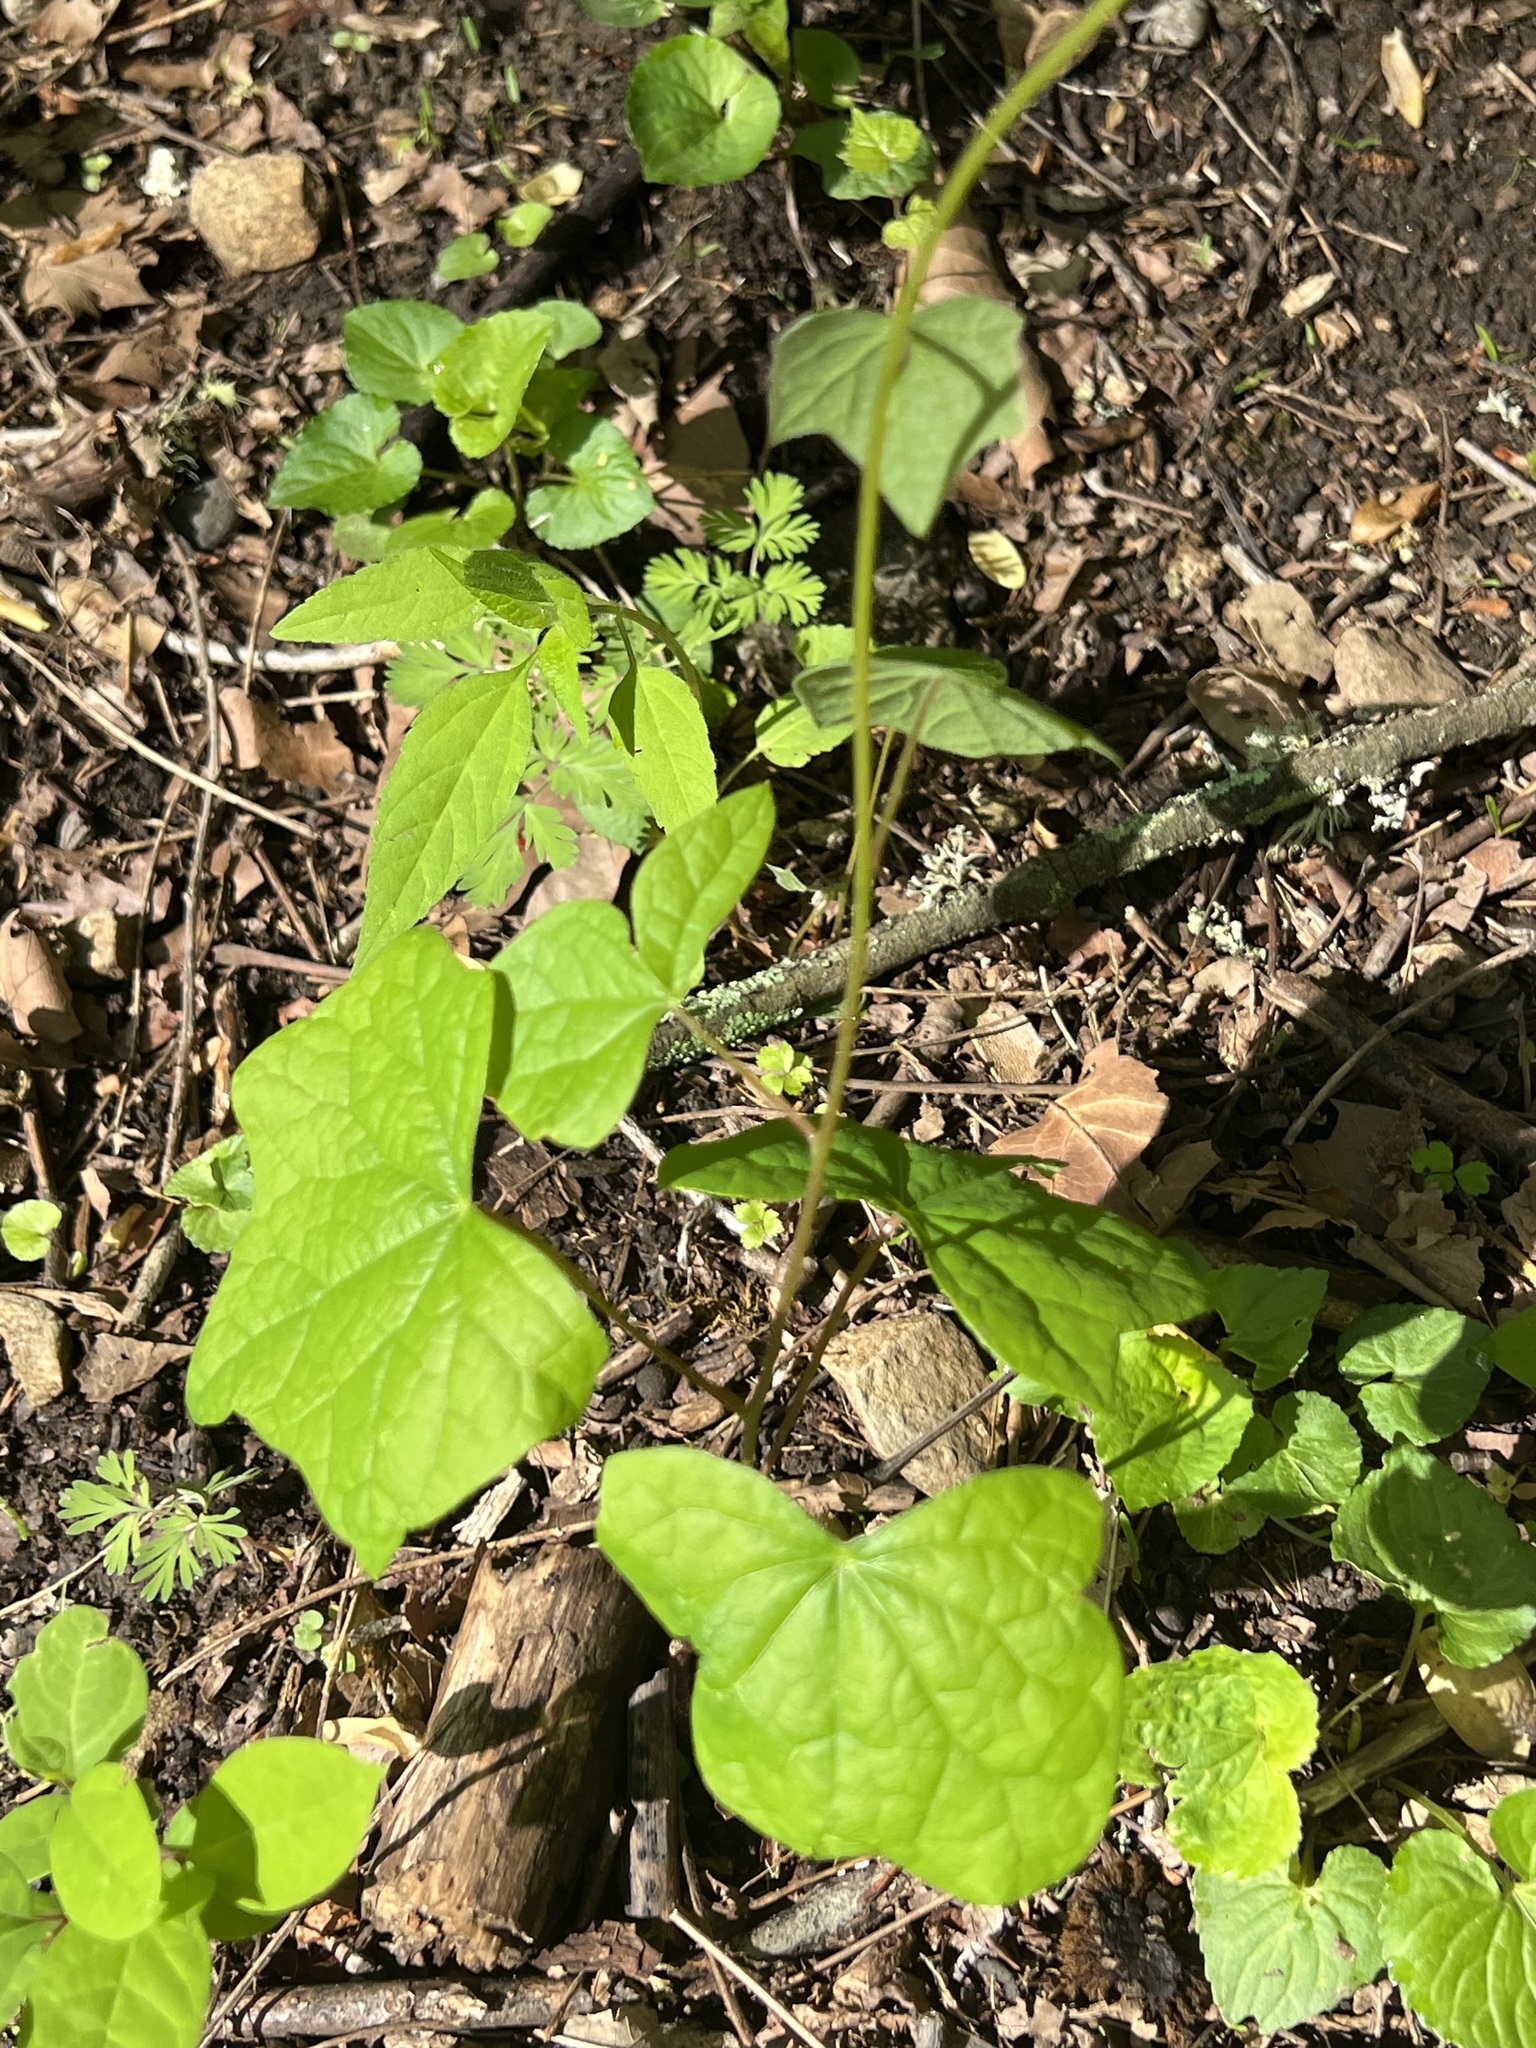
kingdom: Plantae
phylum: Tracheophyta
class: Magnoliopsida
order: Ranunculales
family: Menispermaceae
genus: Menispermum
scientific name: Menispermum canadense
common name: Moonseed
